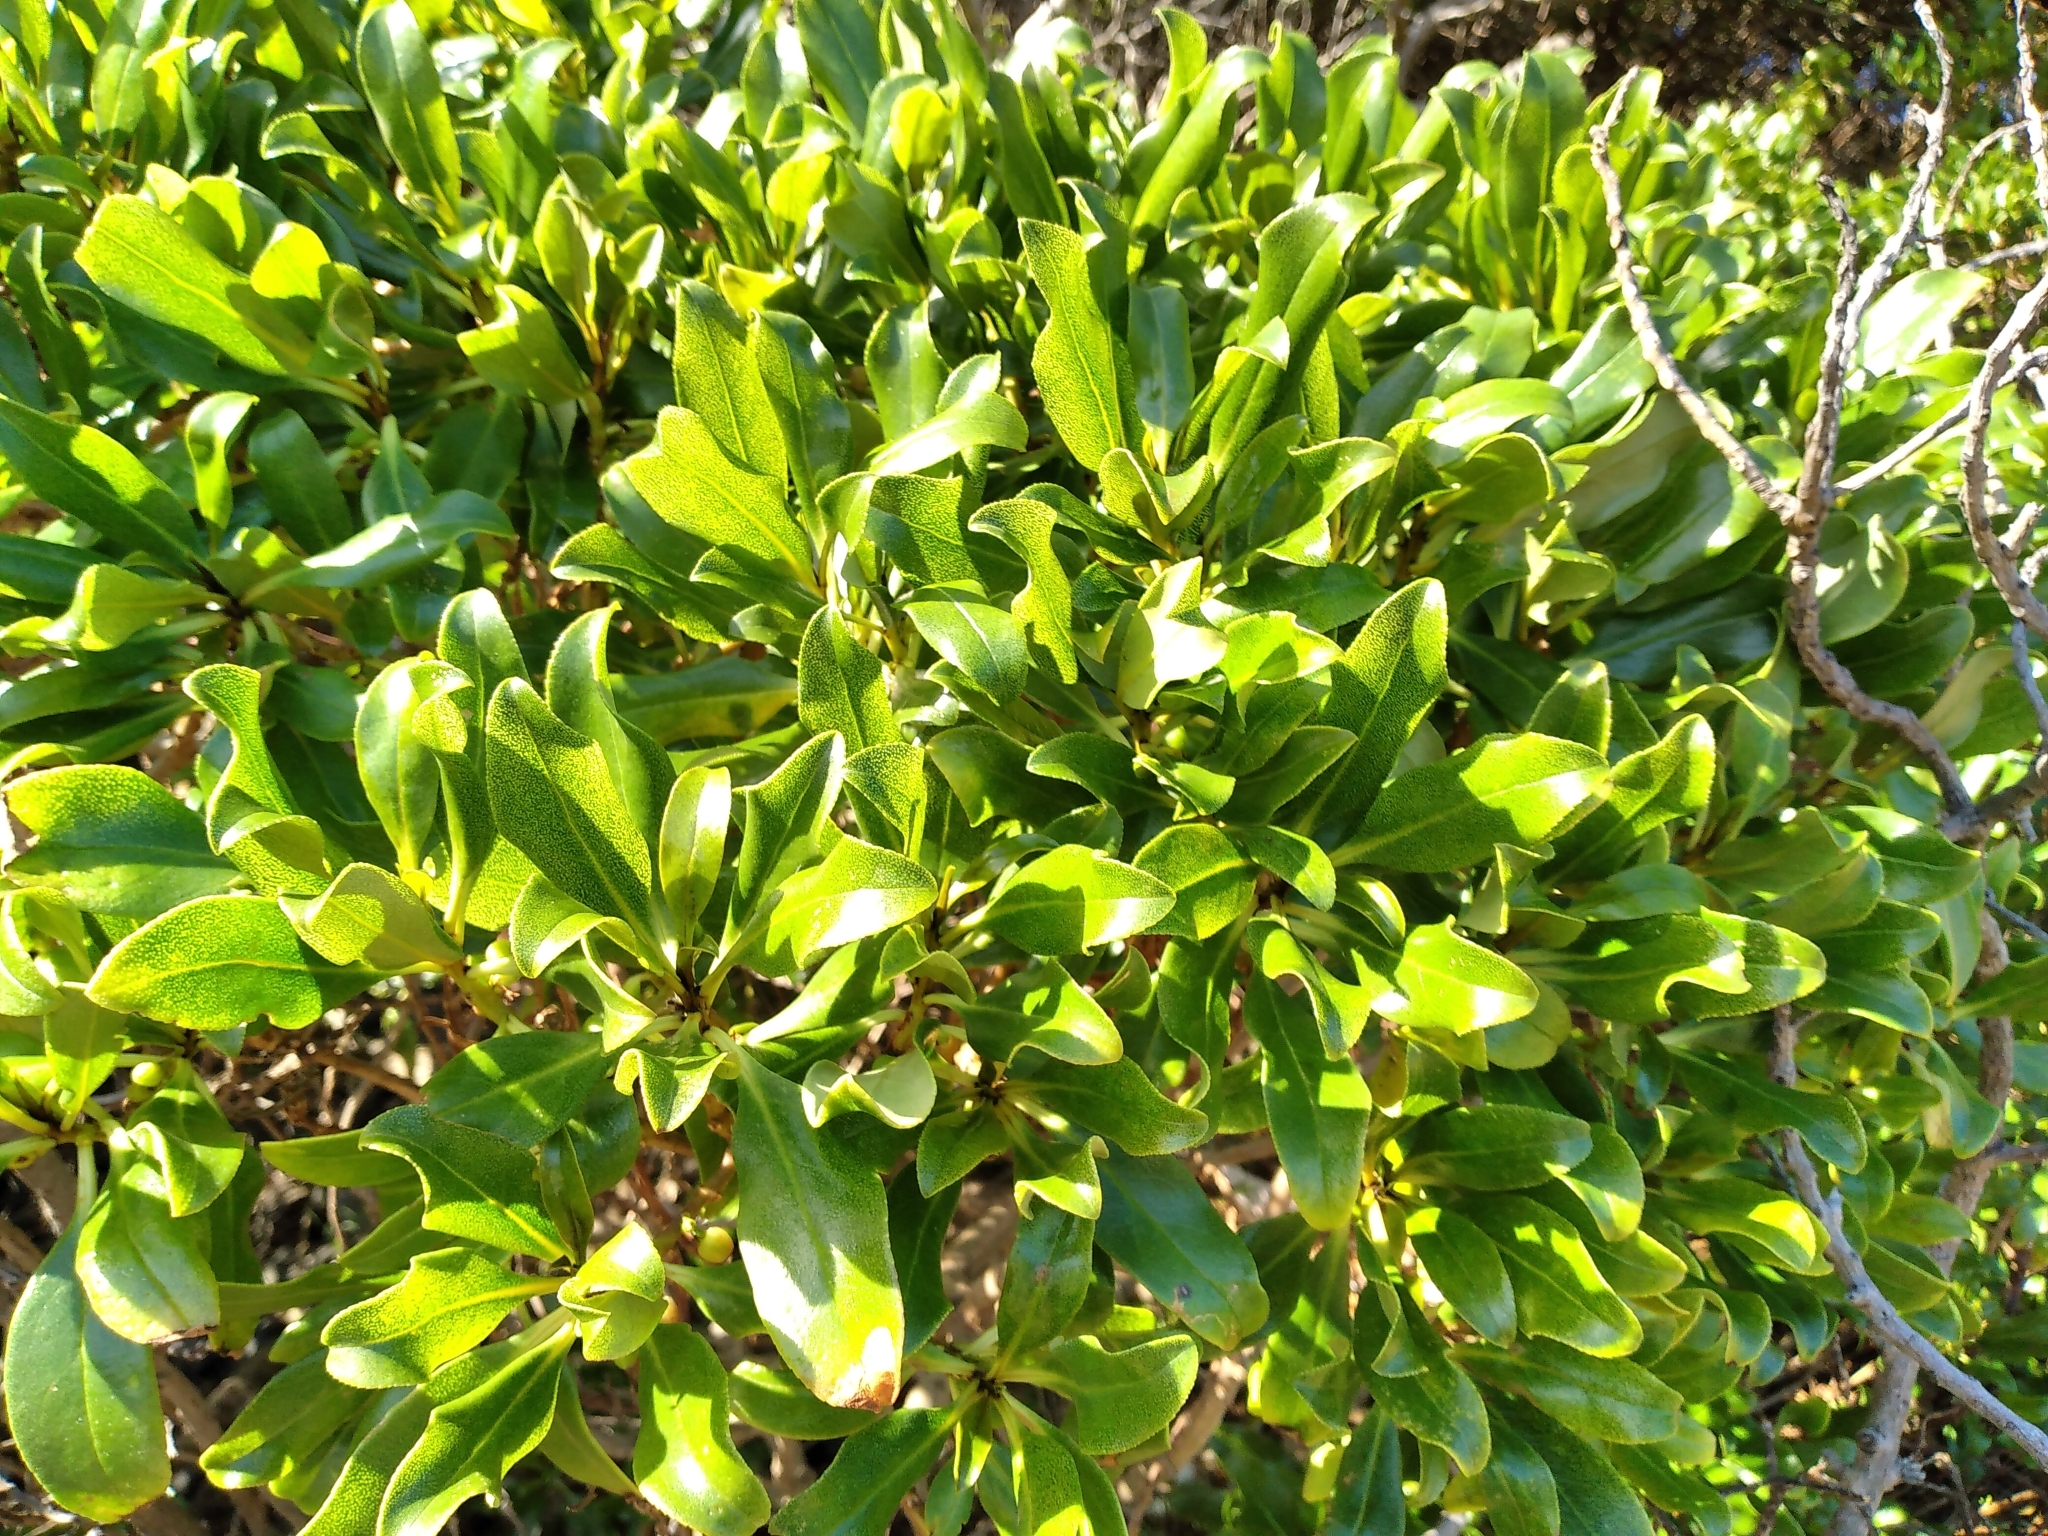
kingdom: Plantae
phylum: Tracheophyta
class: Magnoliopsida
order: Lamiales
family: Scrophulariaceae
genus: Myoporum
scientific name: Myoporum laetum
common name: Ngaio tree
